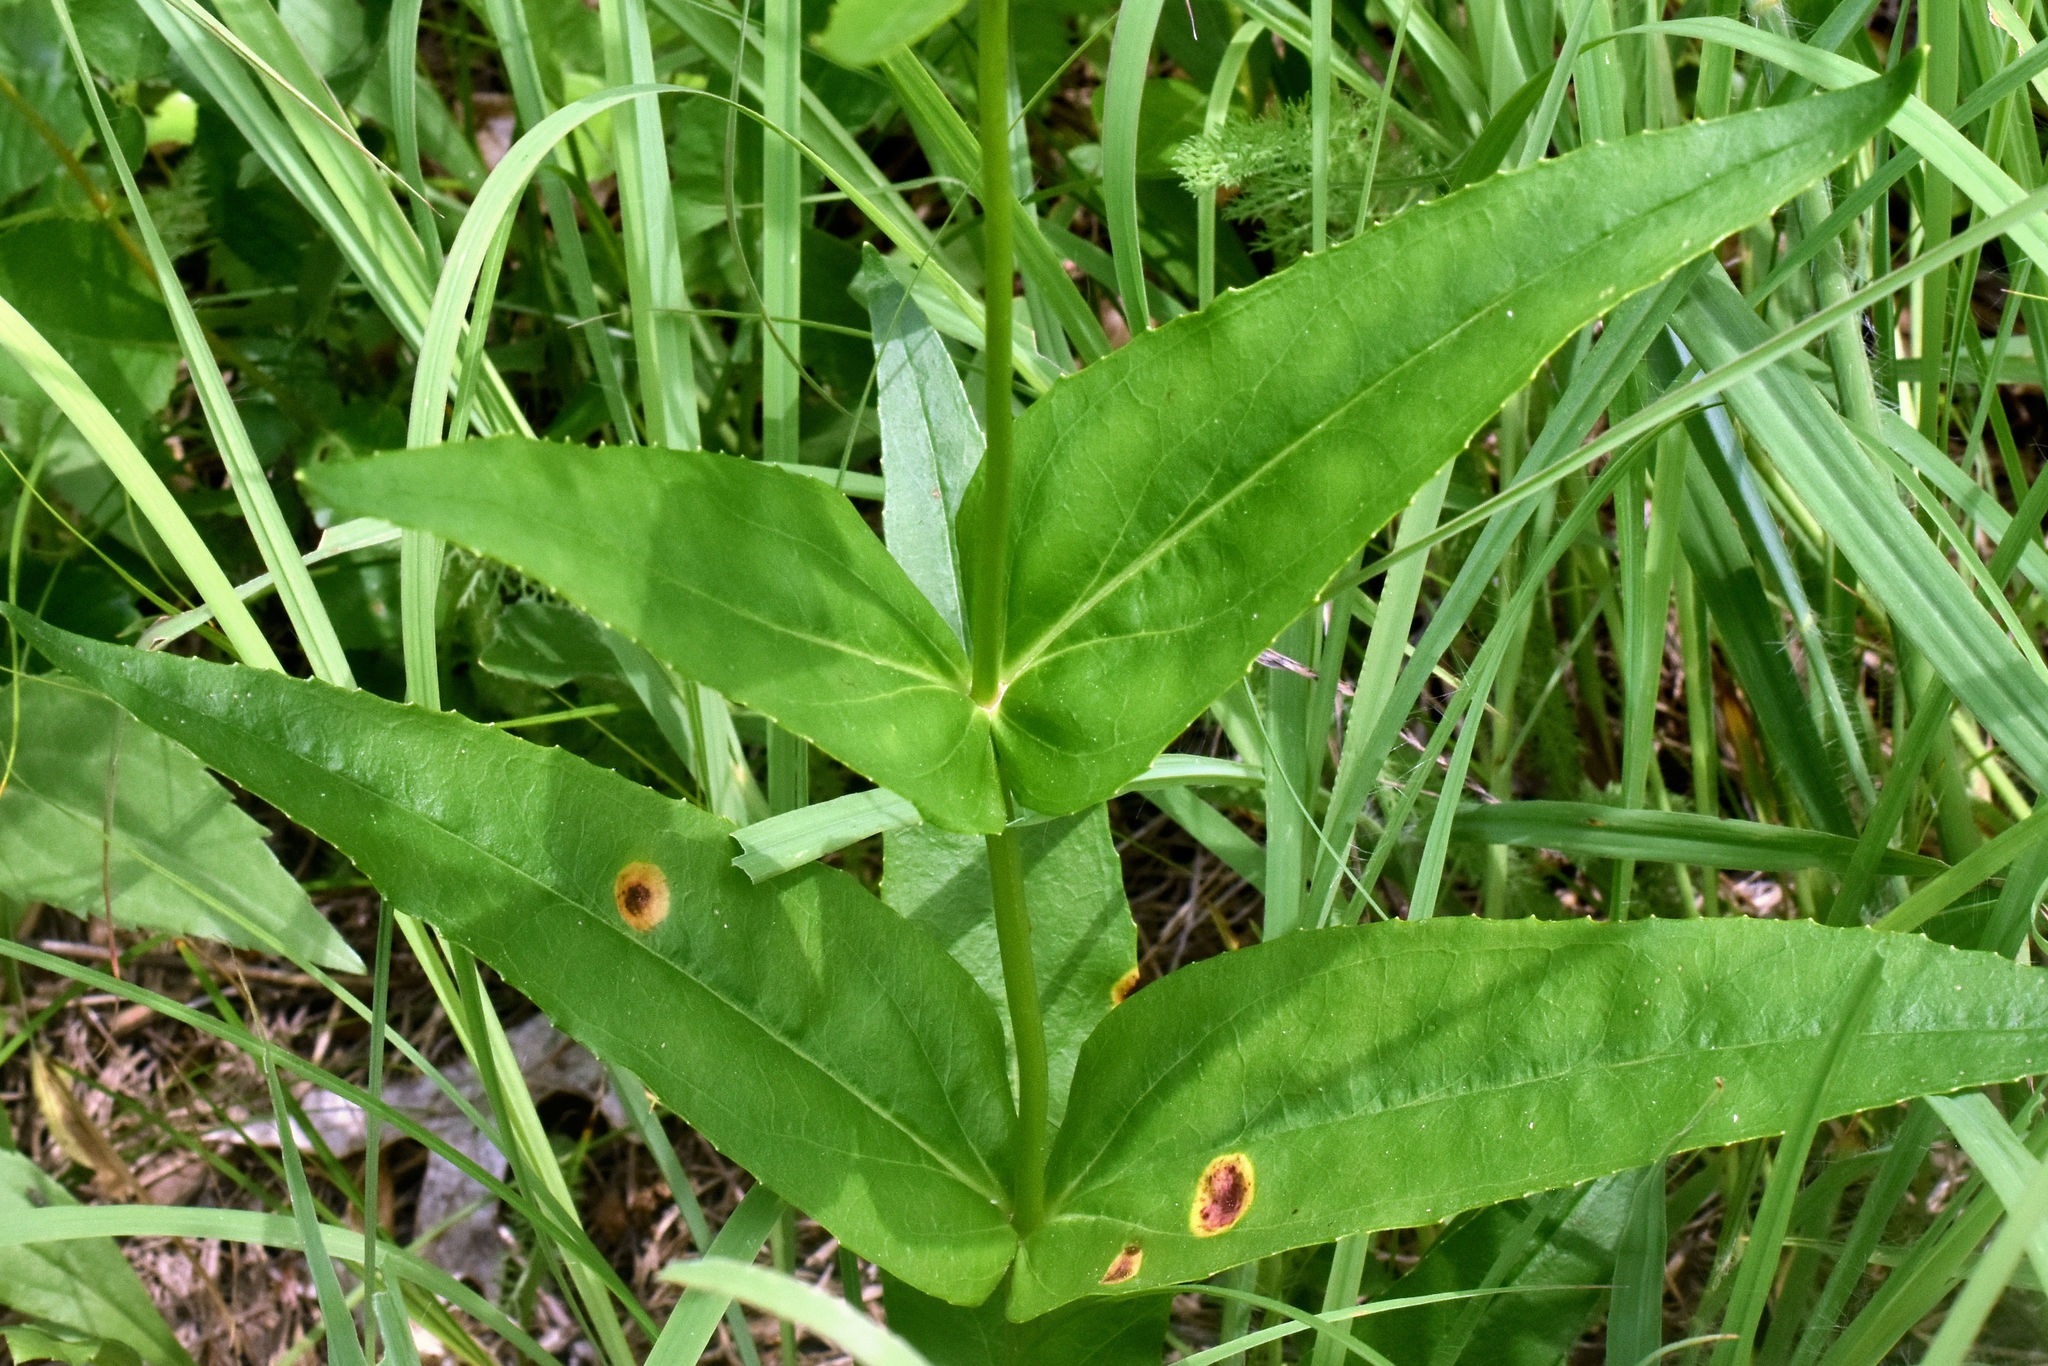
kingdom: Plantae
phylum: Tracheophyta
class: Magnoliopsida
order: Lamiales
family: Plantaginaceae
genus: Penstemon
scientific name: Penstemon digitalis
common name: Foxglove beardtongue
